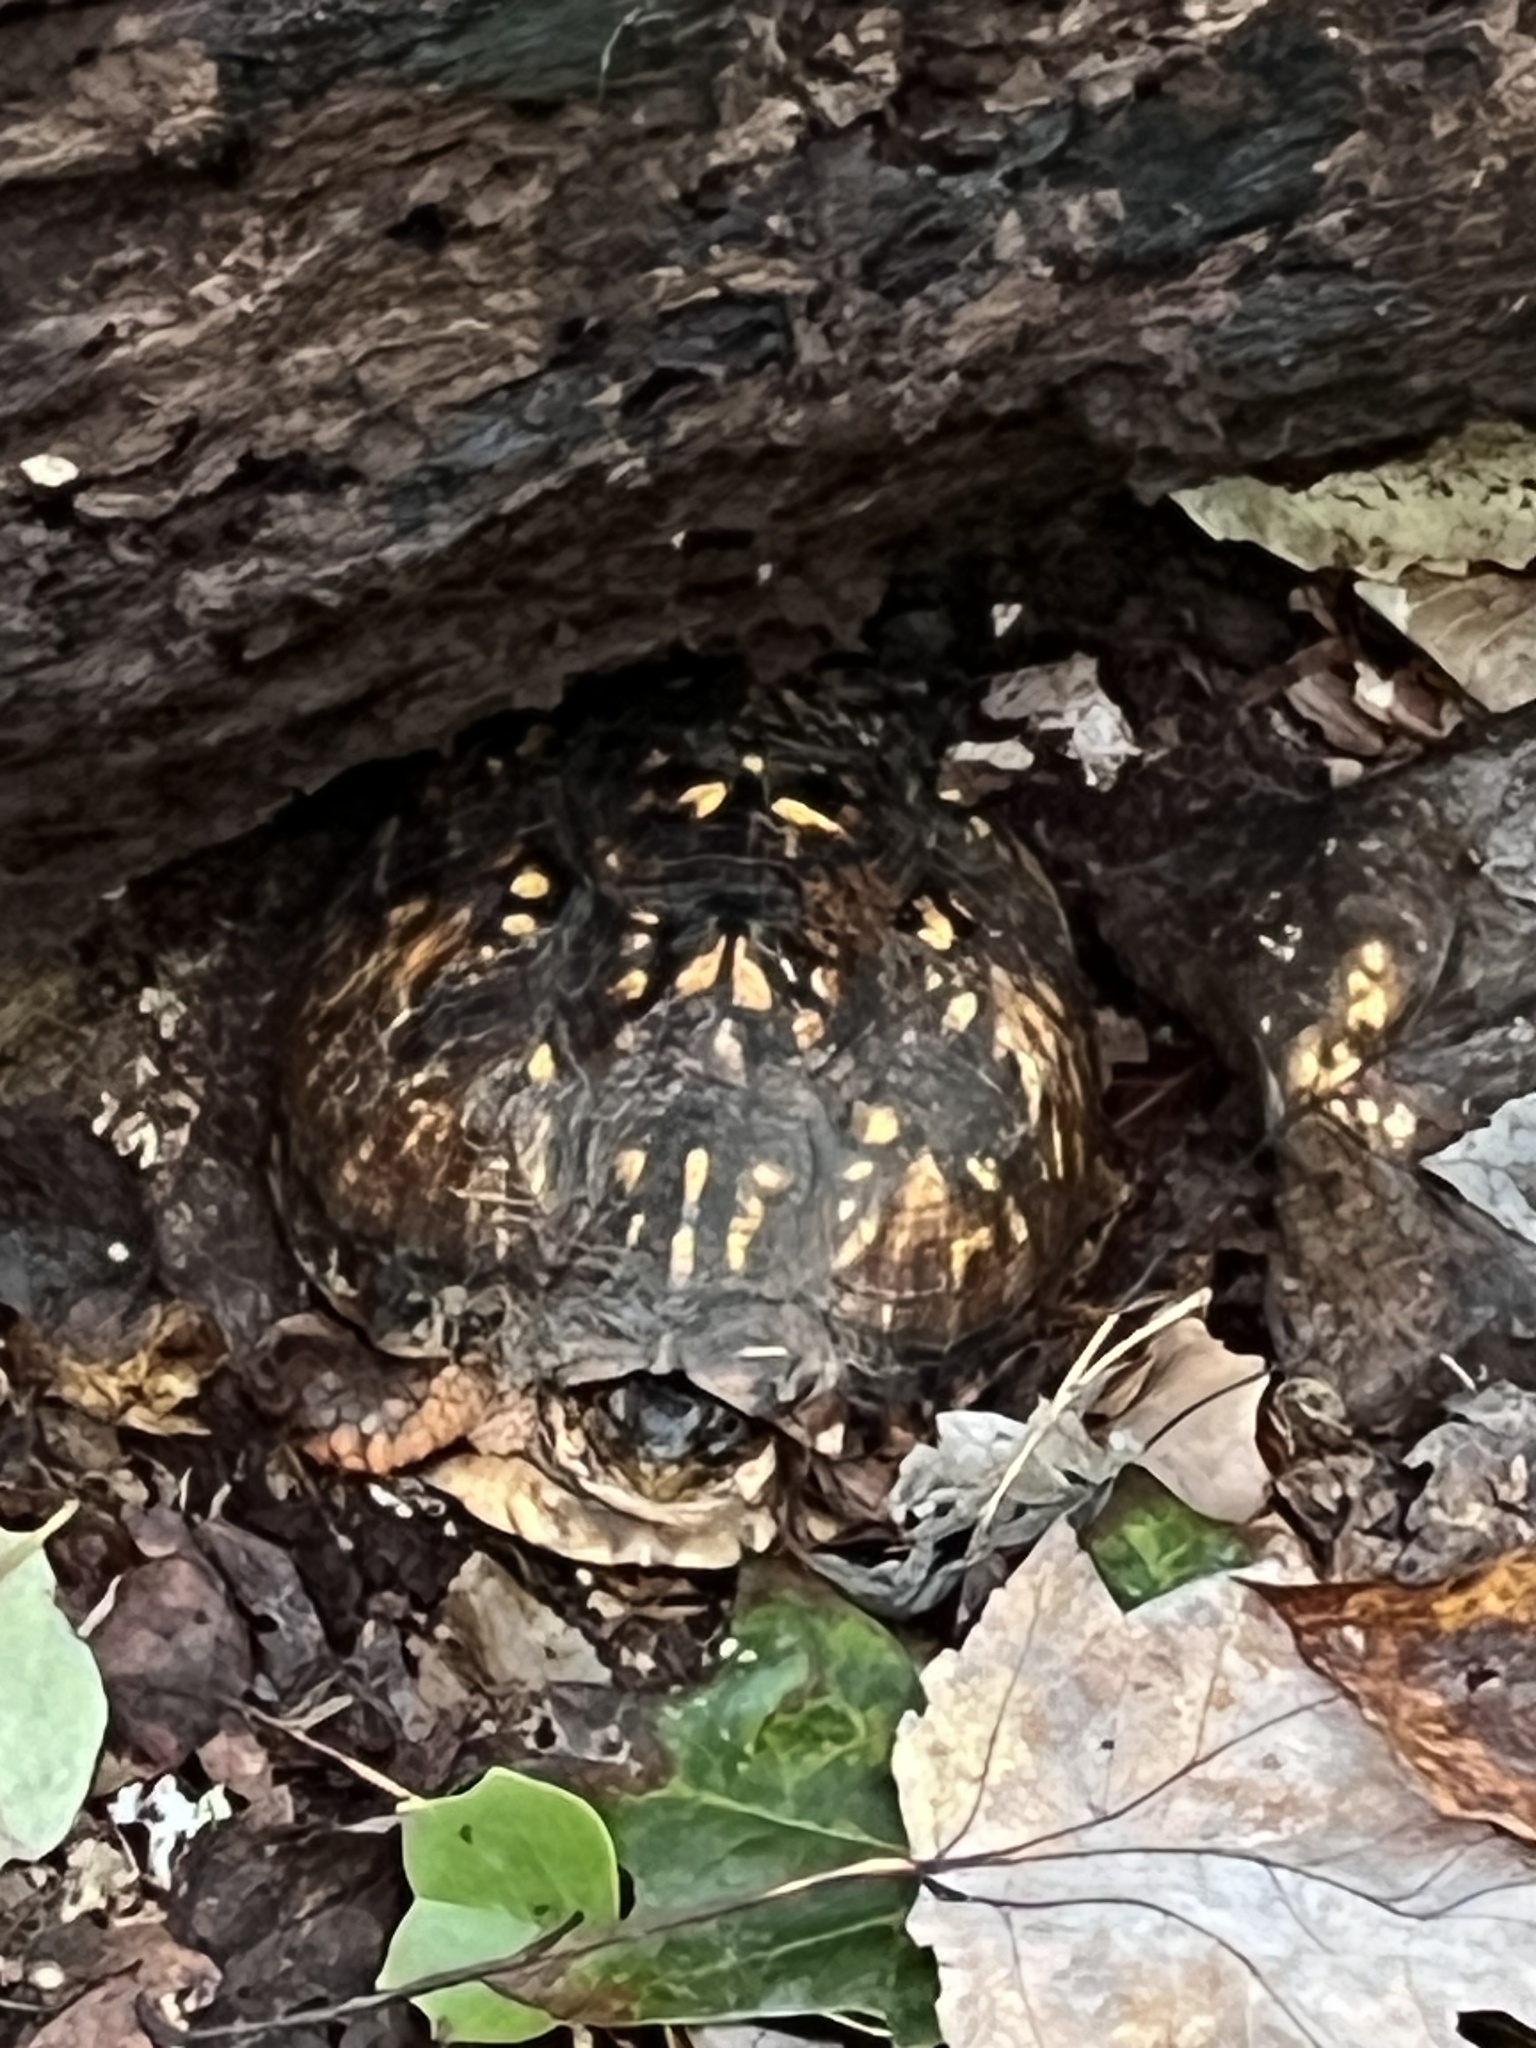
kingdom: Animalia
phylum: Chordata
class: Testudines
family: Emydidae
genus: Terrapene
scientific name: Terrapene carolina
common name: Common box turtle
